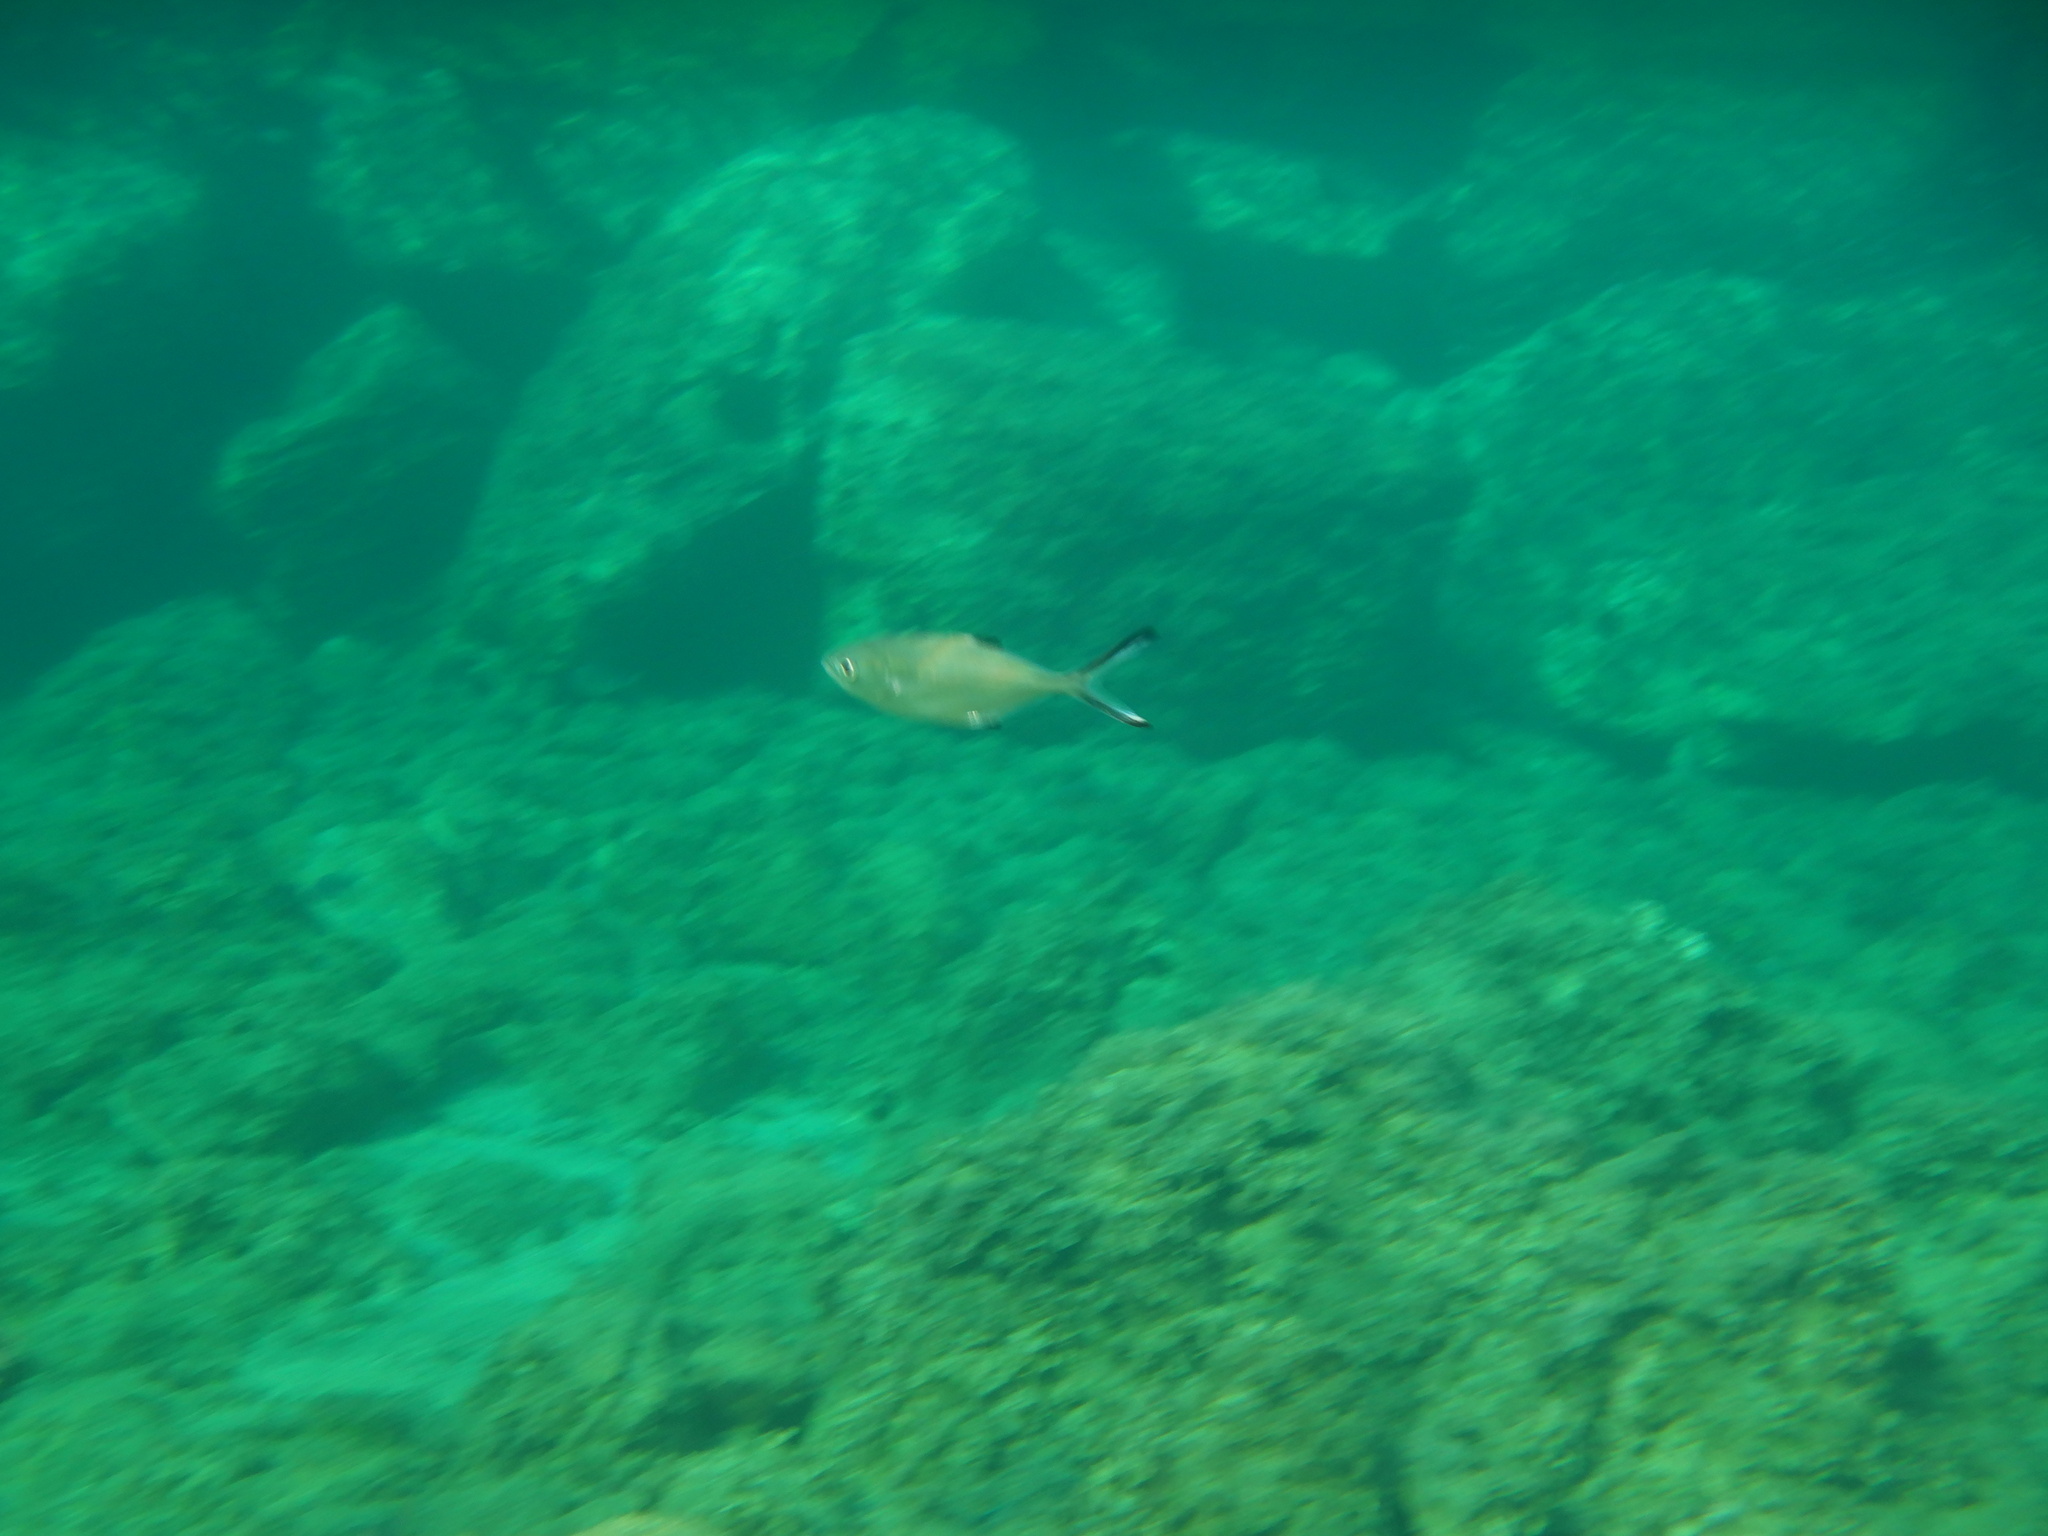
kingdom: Animalia
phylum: Chordata
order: Perciformes
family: Carangidae
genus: Trachinotus
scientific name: Trachinotus ovatus
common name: Pompano
